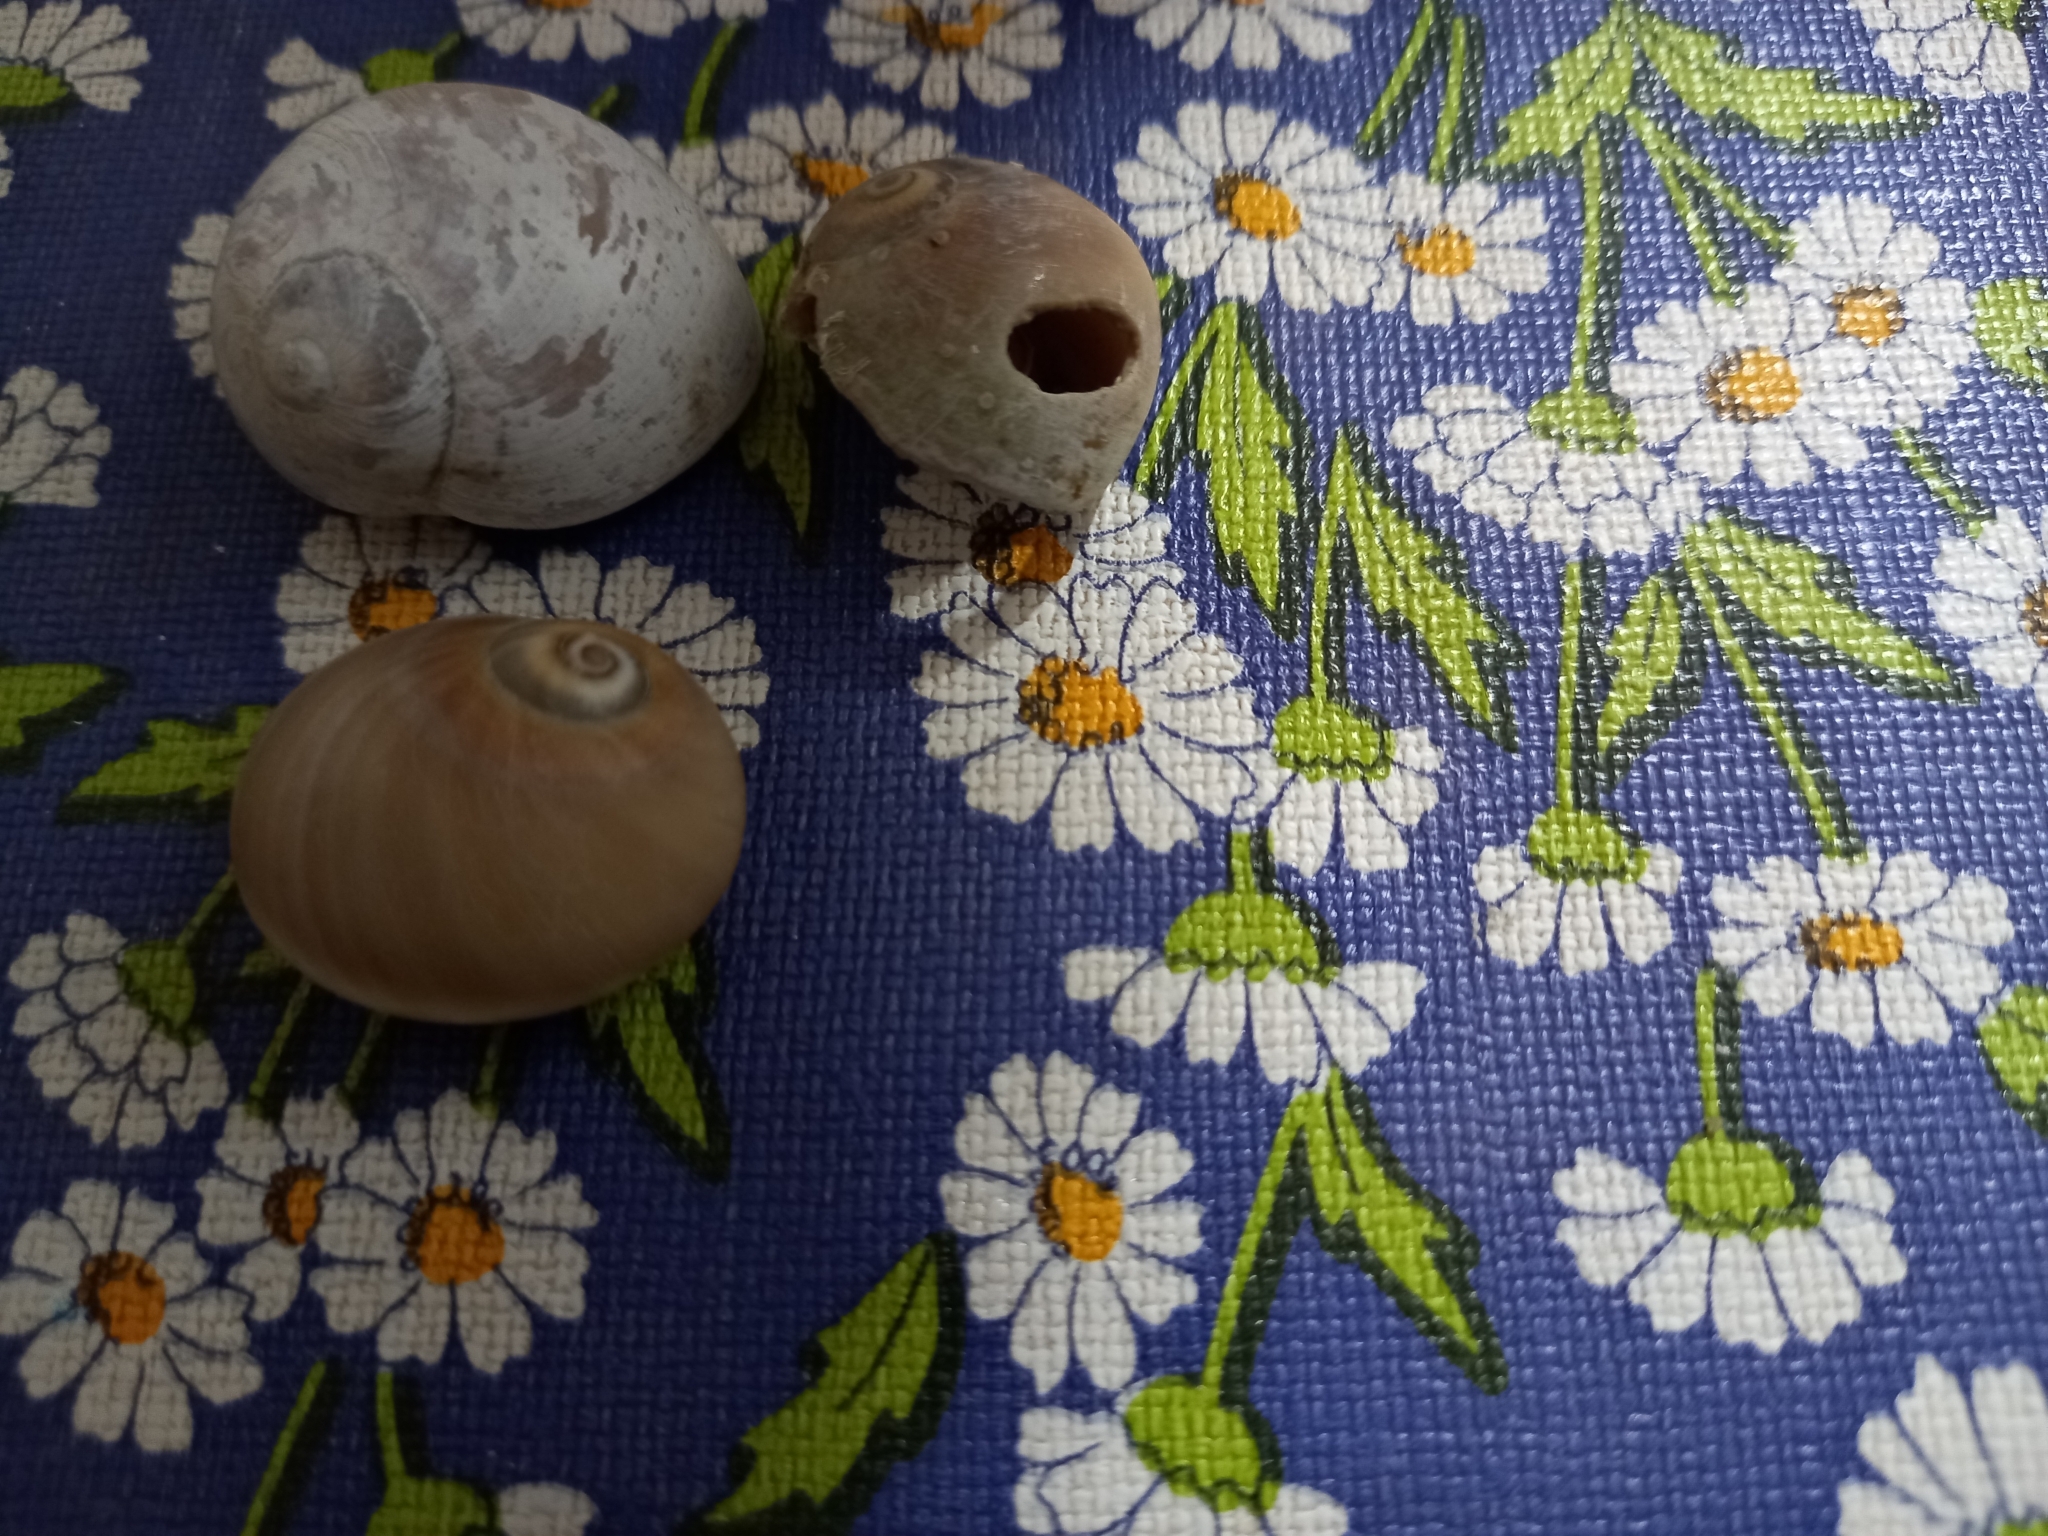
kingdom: Animalia
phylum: Mollusca
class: Gastropoda
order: Littorinimorpha
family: Naticidae
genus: Neverita
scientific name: Neverita josephinia
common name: Josephine's moonsnail
